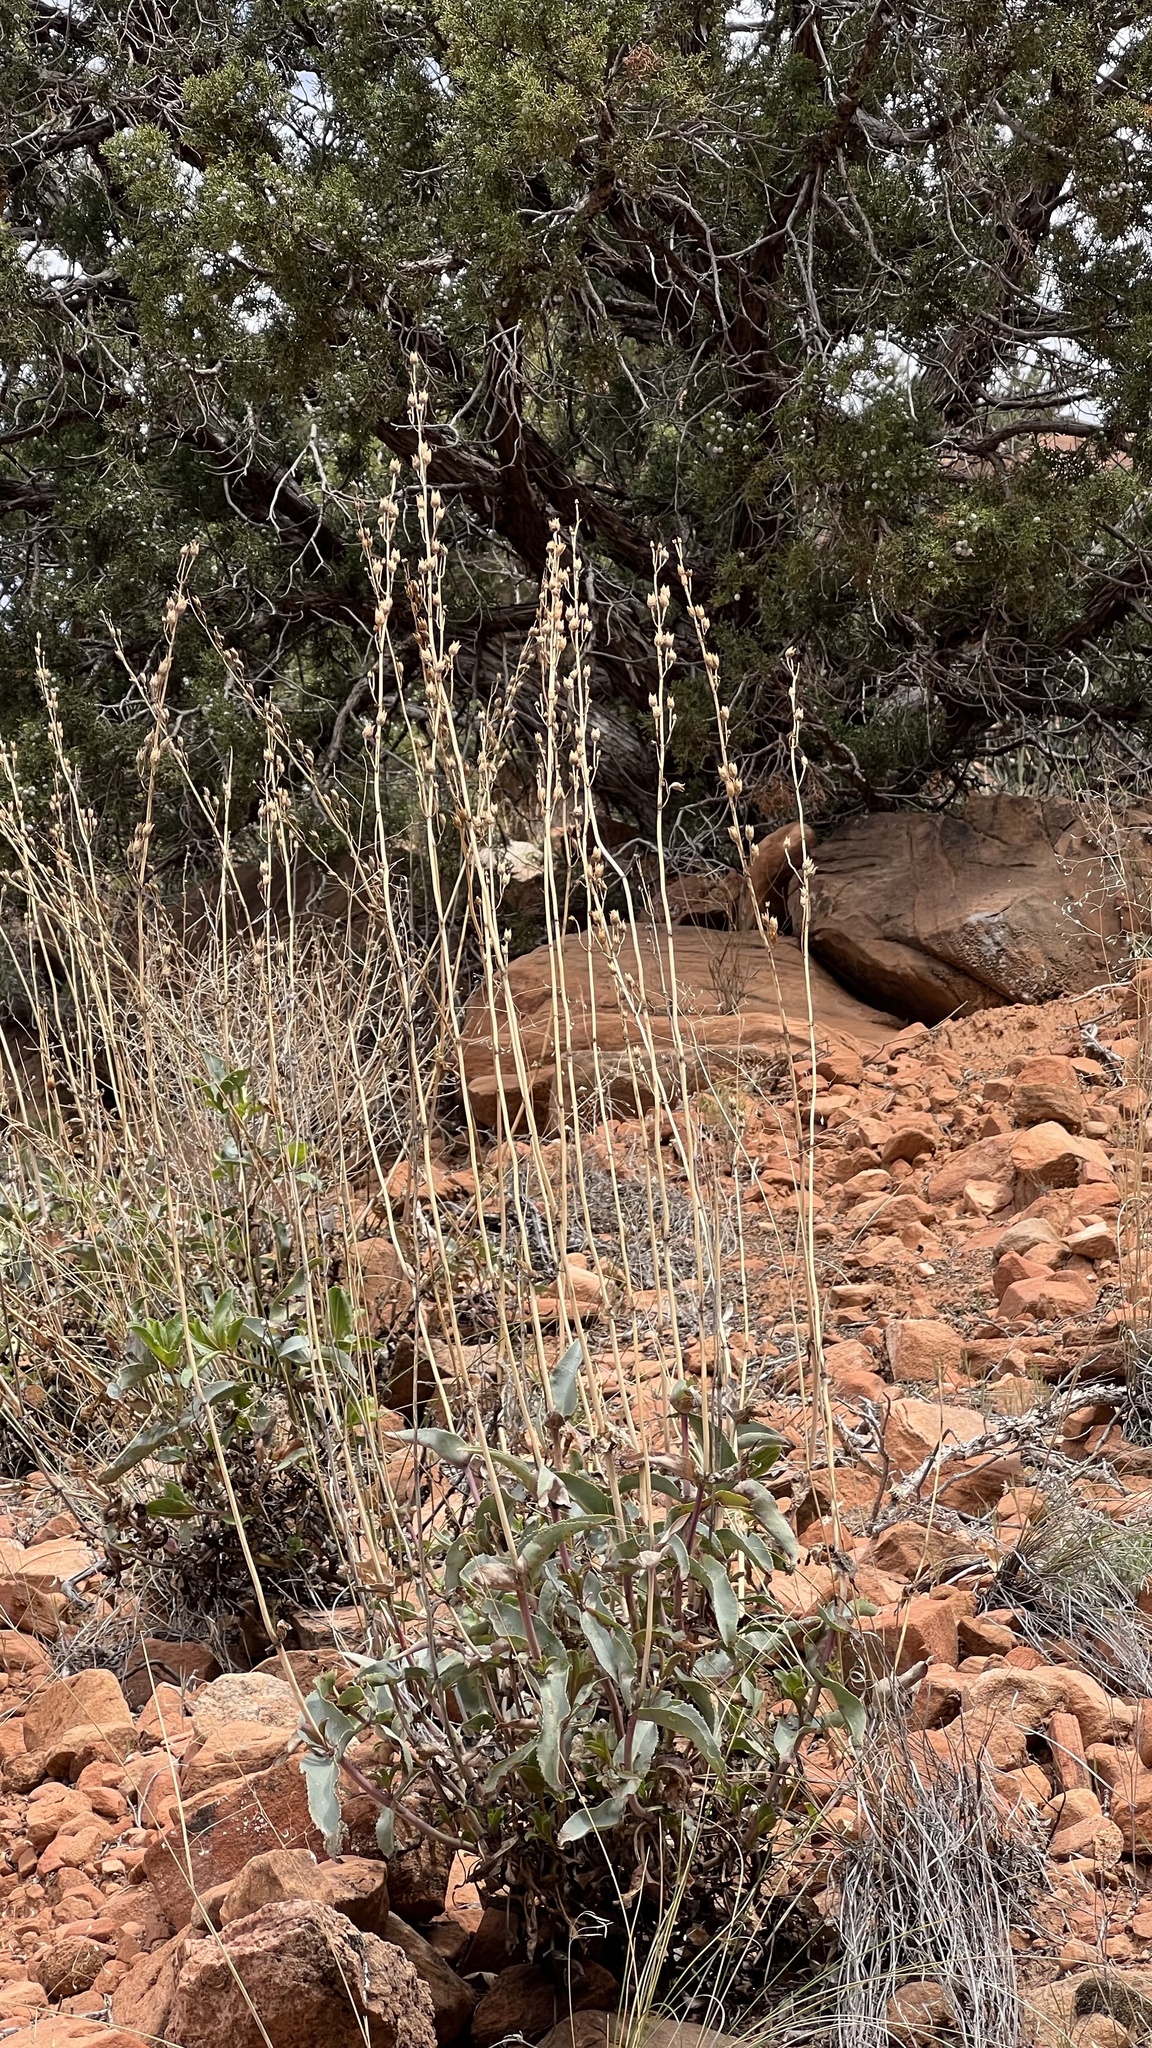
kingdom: Plantae
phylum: Tracheophyta
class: Magnoliopsida
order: Lamiales
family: Plantaginaceae
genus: Penstemon
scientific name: Penstemon palmeri
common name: Palmer penstemon
